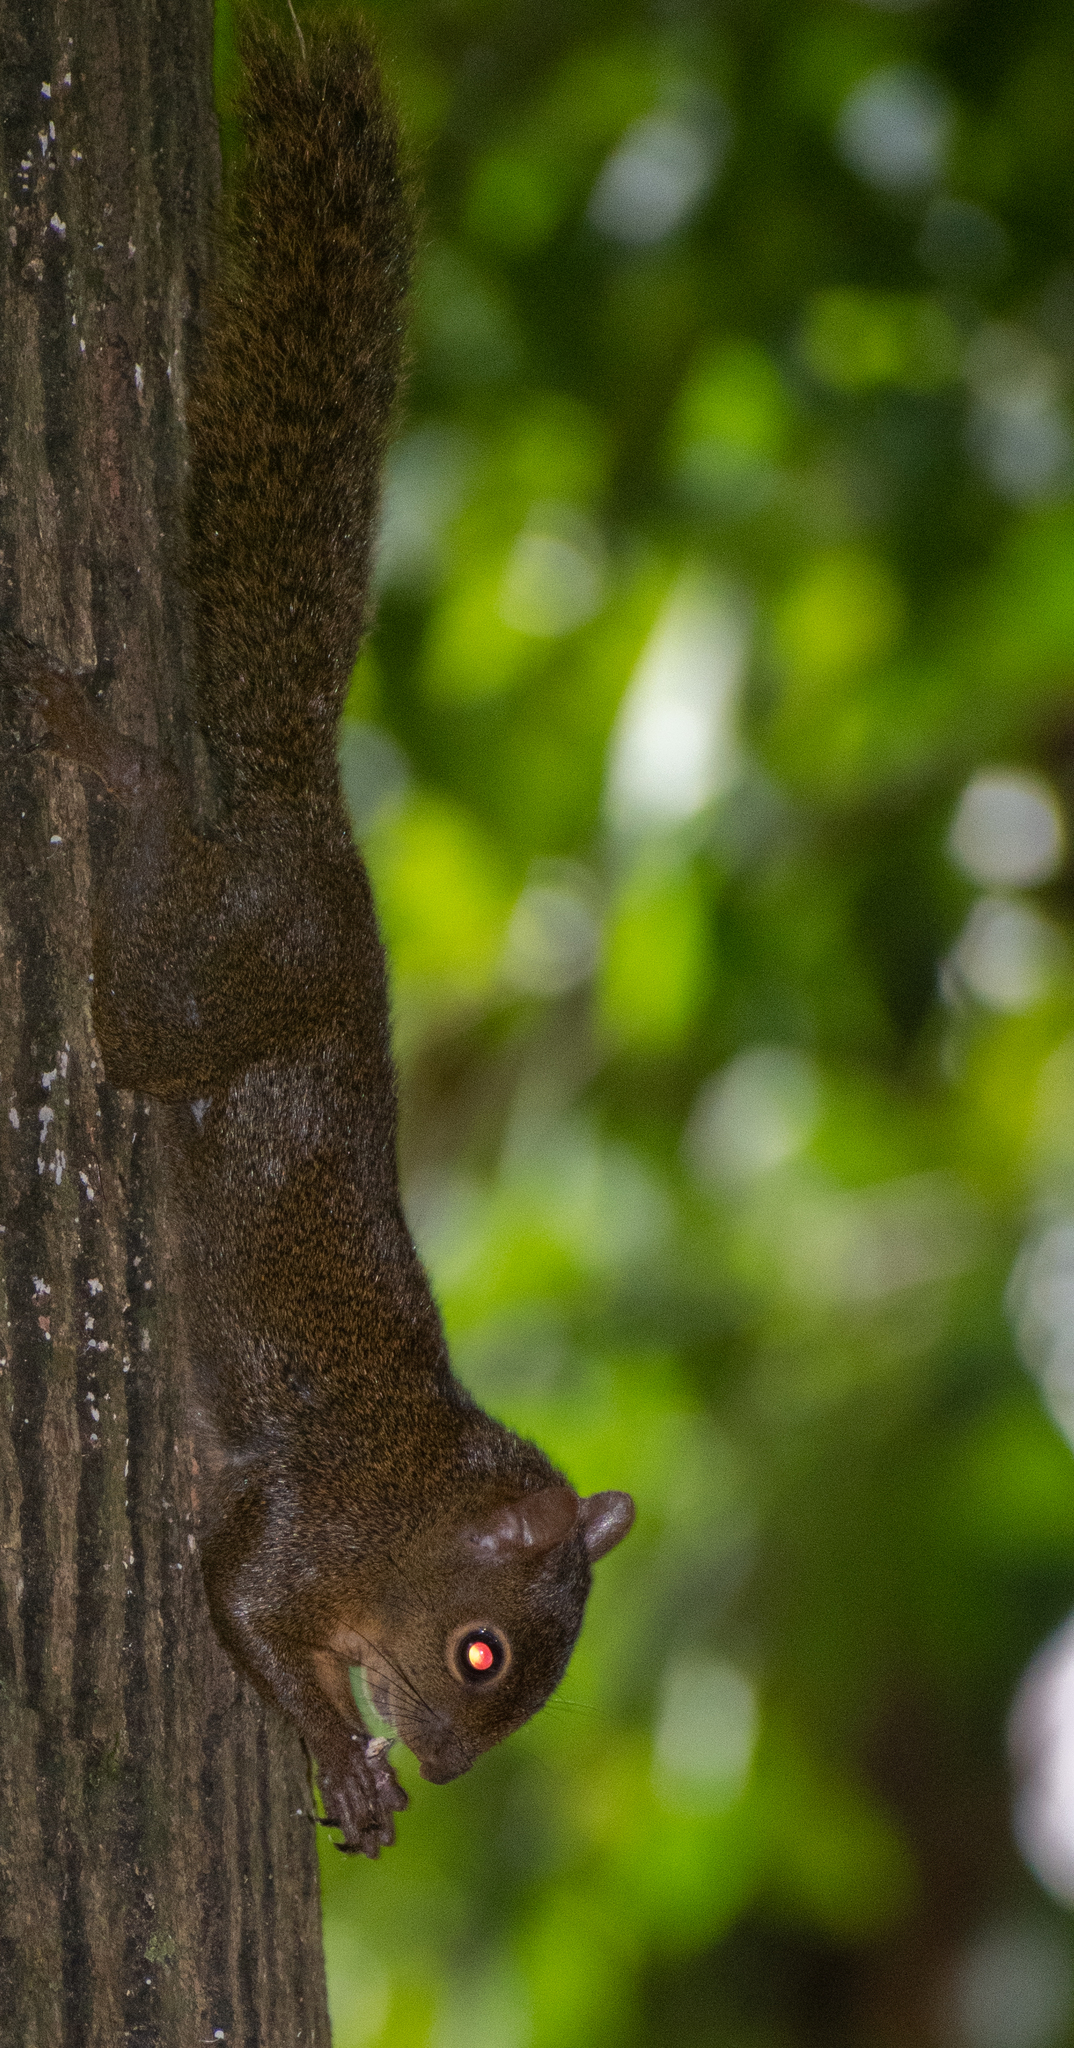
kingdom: Animalia
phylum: Chordata
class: Mammalia
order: Rodentia
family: Sciuridae
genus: Sciurus
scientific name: Sciurus aestuans
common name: Guianan squirrel
